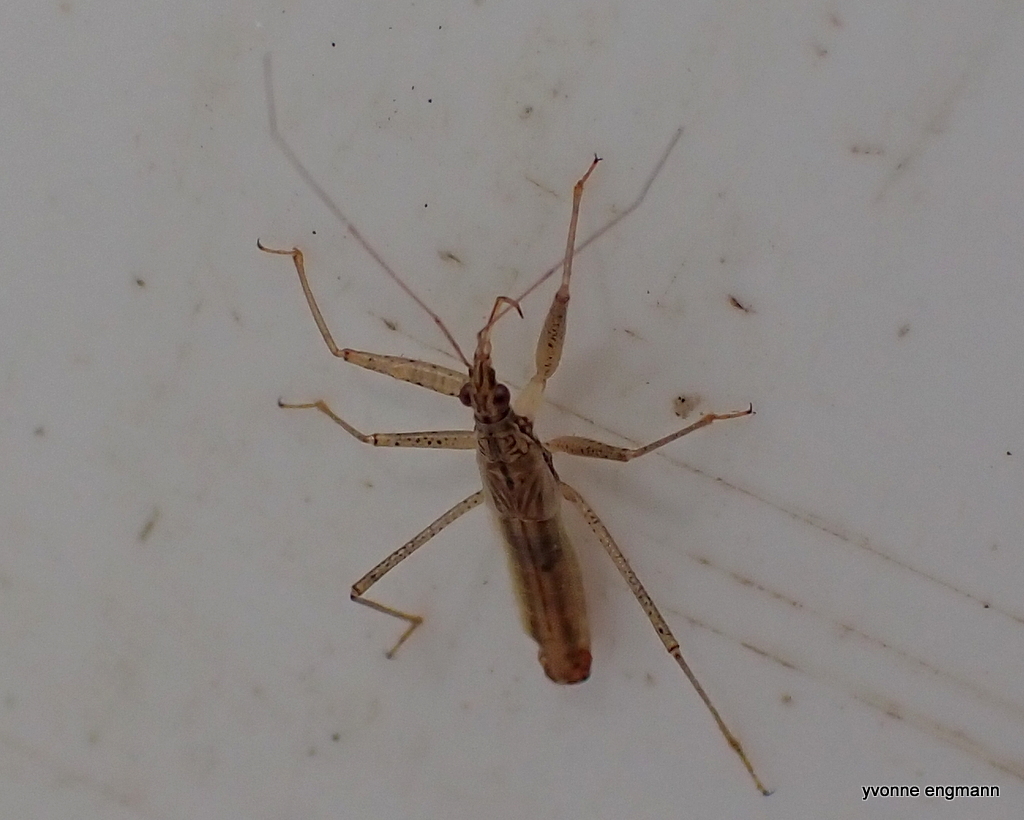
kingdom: Animalia
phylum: Arthropoda
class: Insecta
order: Hemiptera
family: Nabidae
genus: Nabis
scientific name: Nabis limbatus
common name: Marsh damselbug
